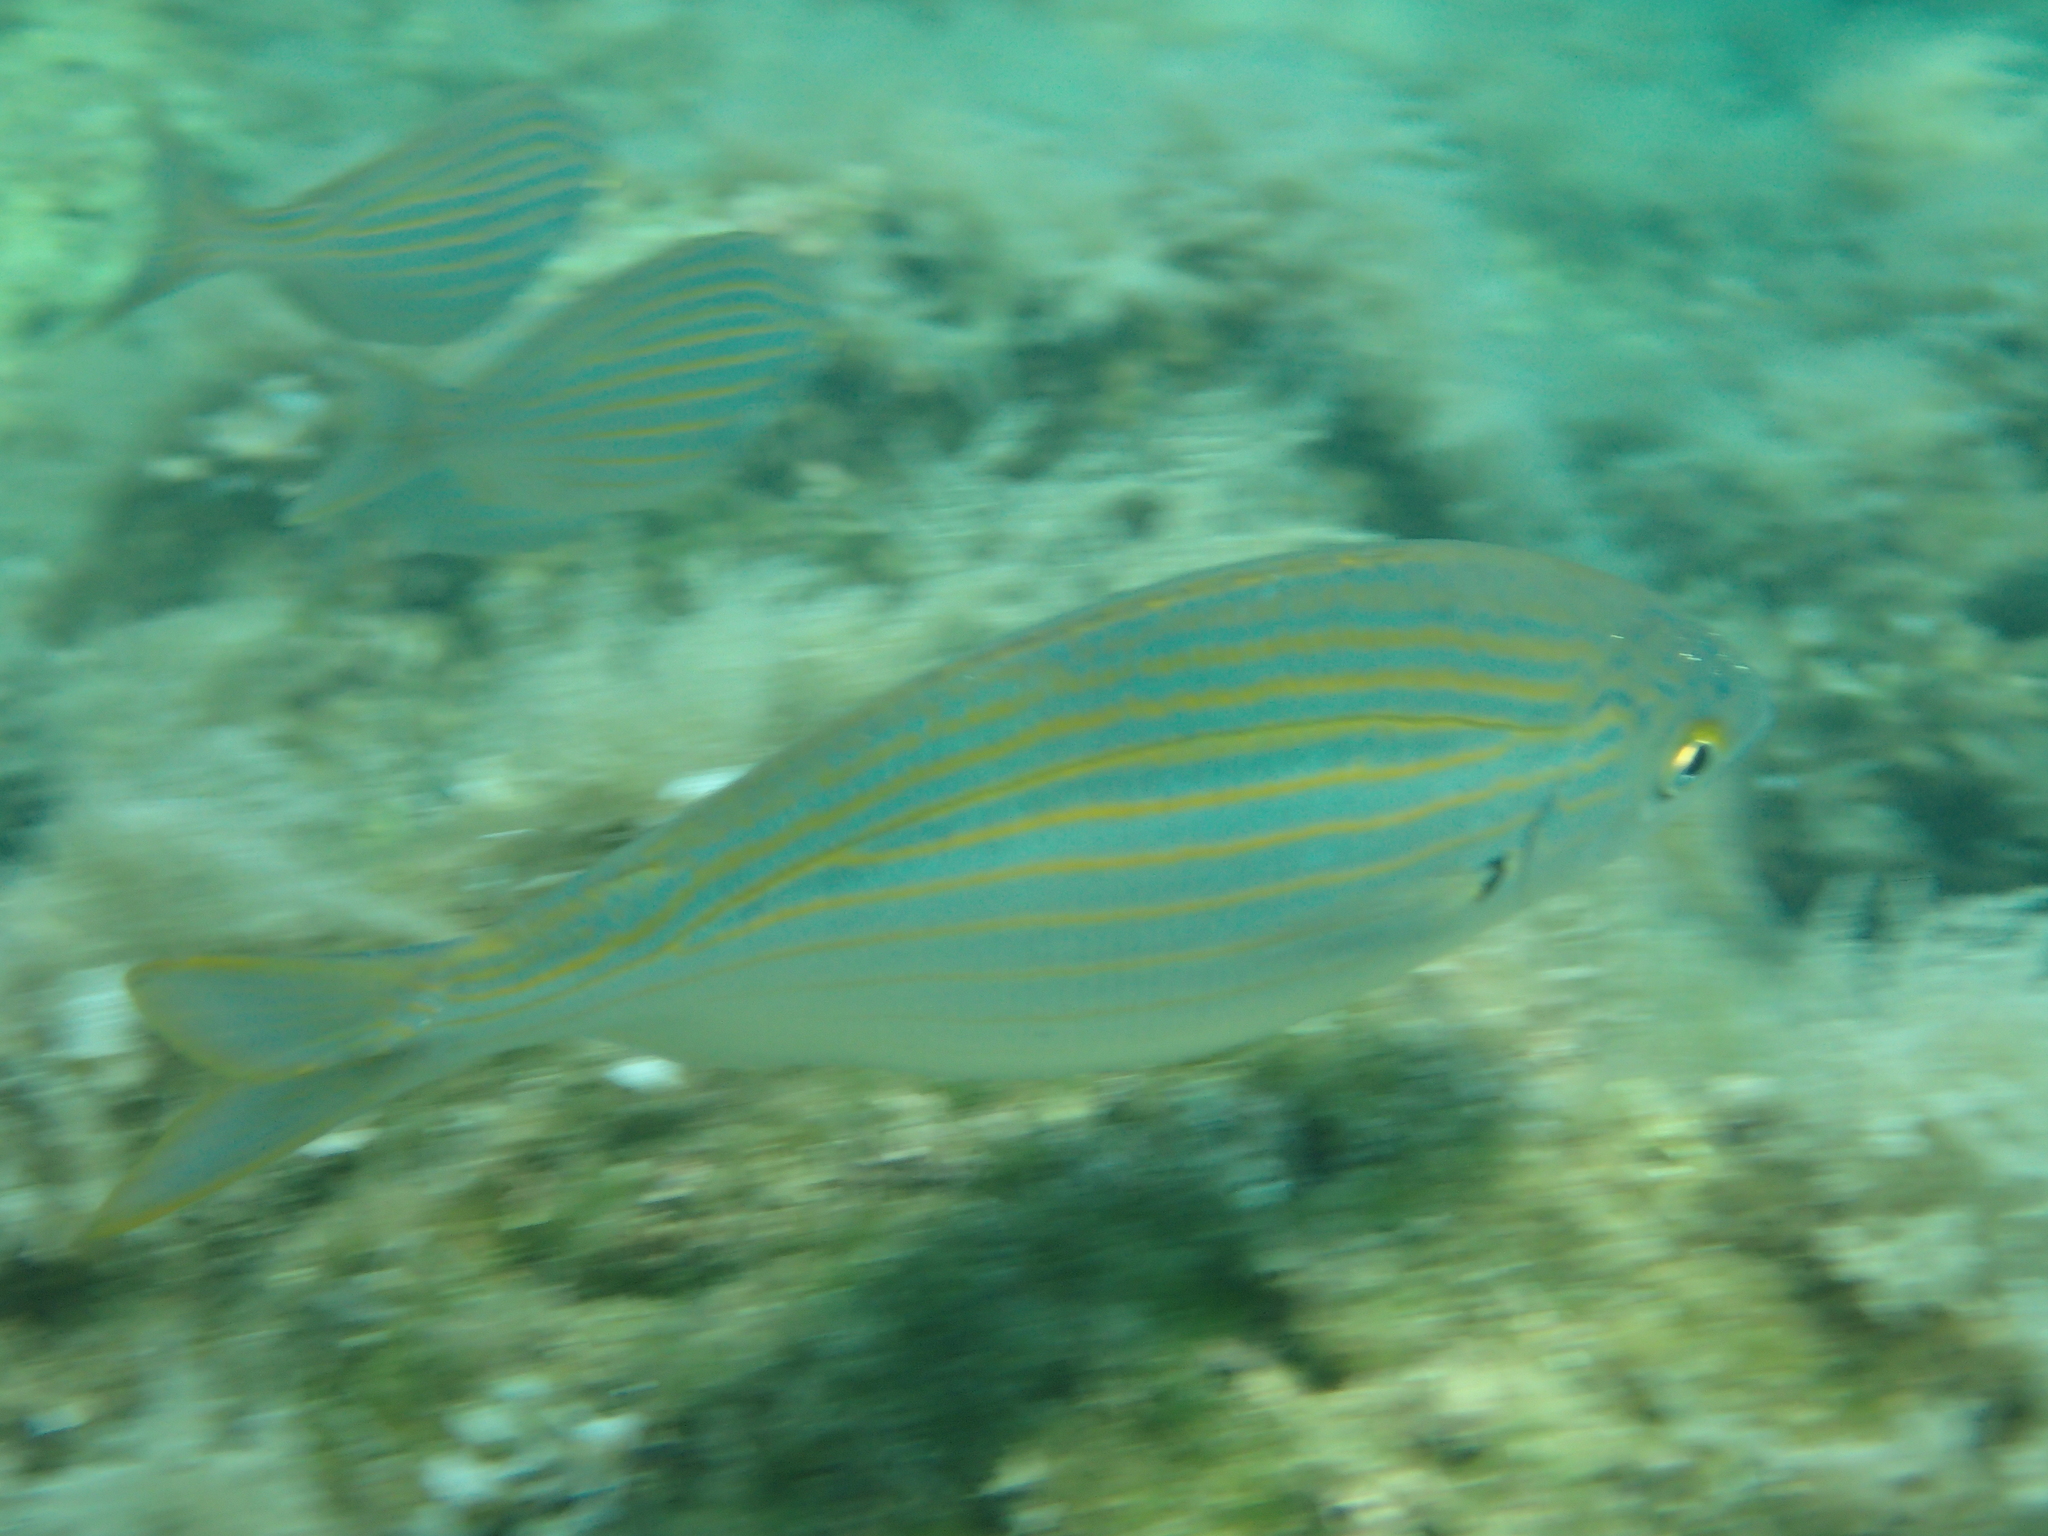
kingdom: Animalia
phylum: Chordata
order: Perciformes
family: Sparidae
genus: Sarpa
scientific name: Sarpa salpa
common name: Salema
